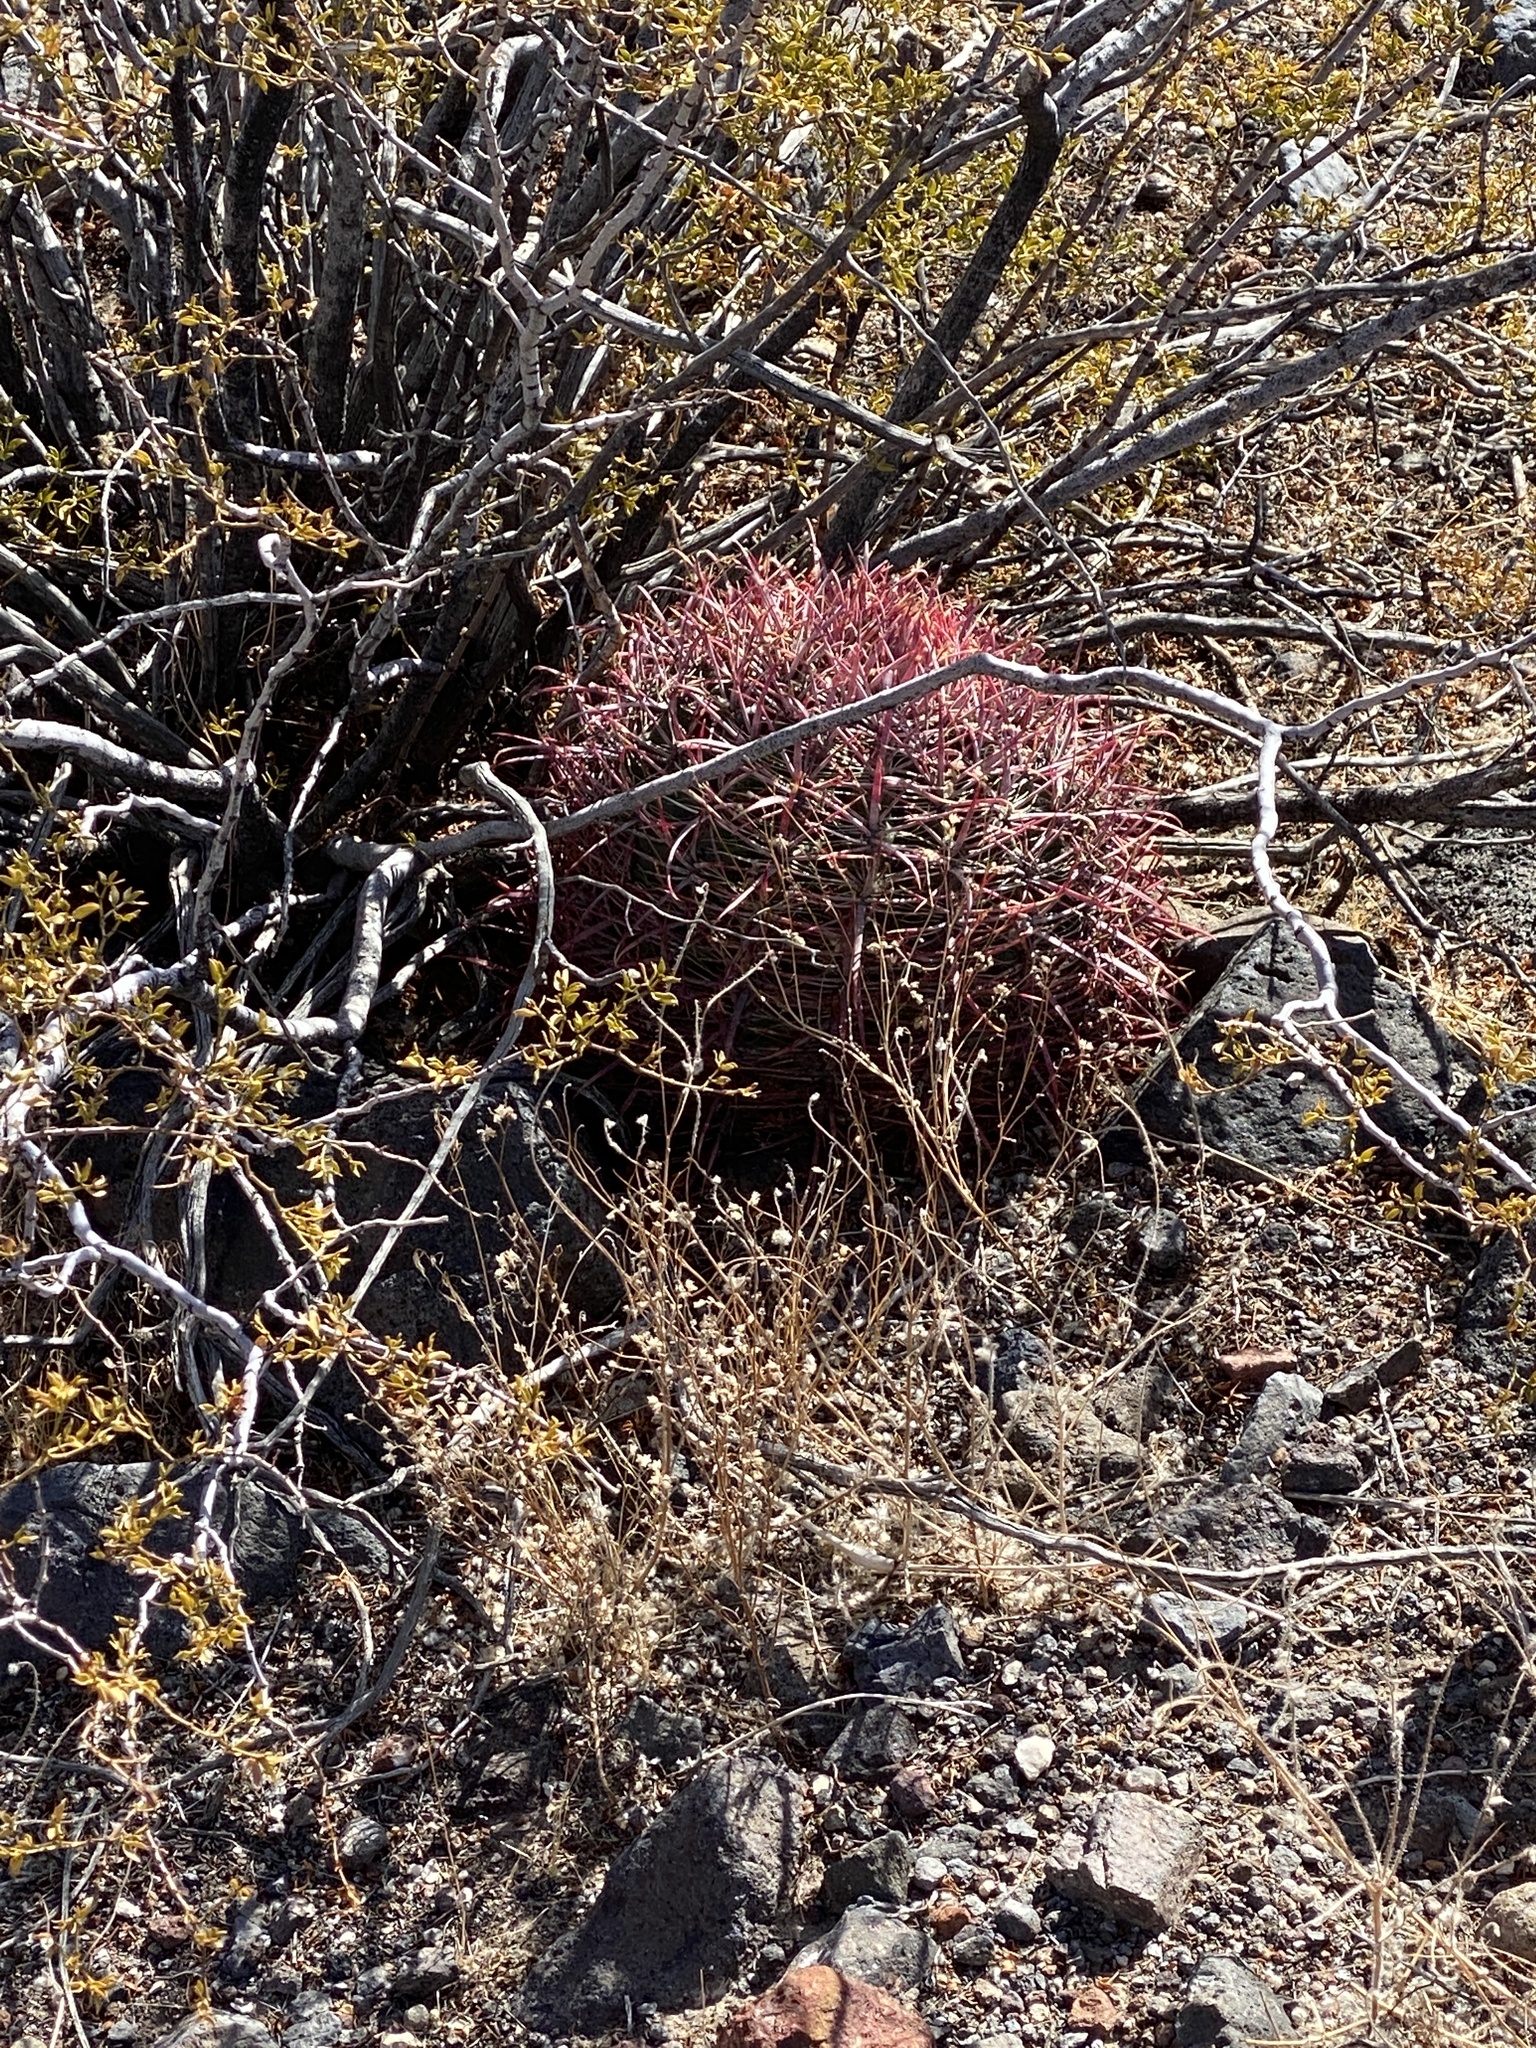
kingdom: Plantae
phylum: Tracheophyta
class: Magnoliopsida
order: Caryophyllales
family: Cactaceae
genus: Ferocactus
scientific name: Ferocactus cylindraceus
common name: California barrel cactus
